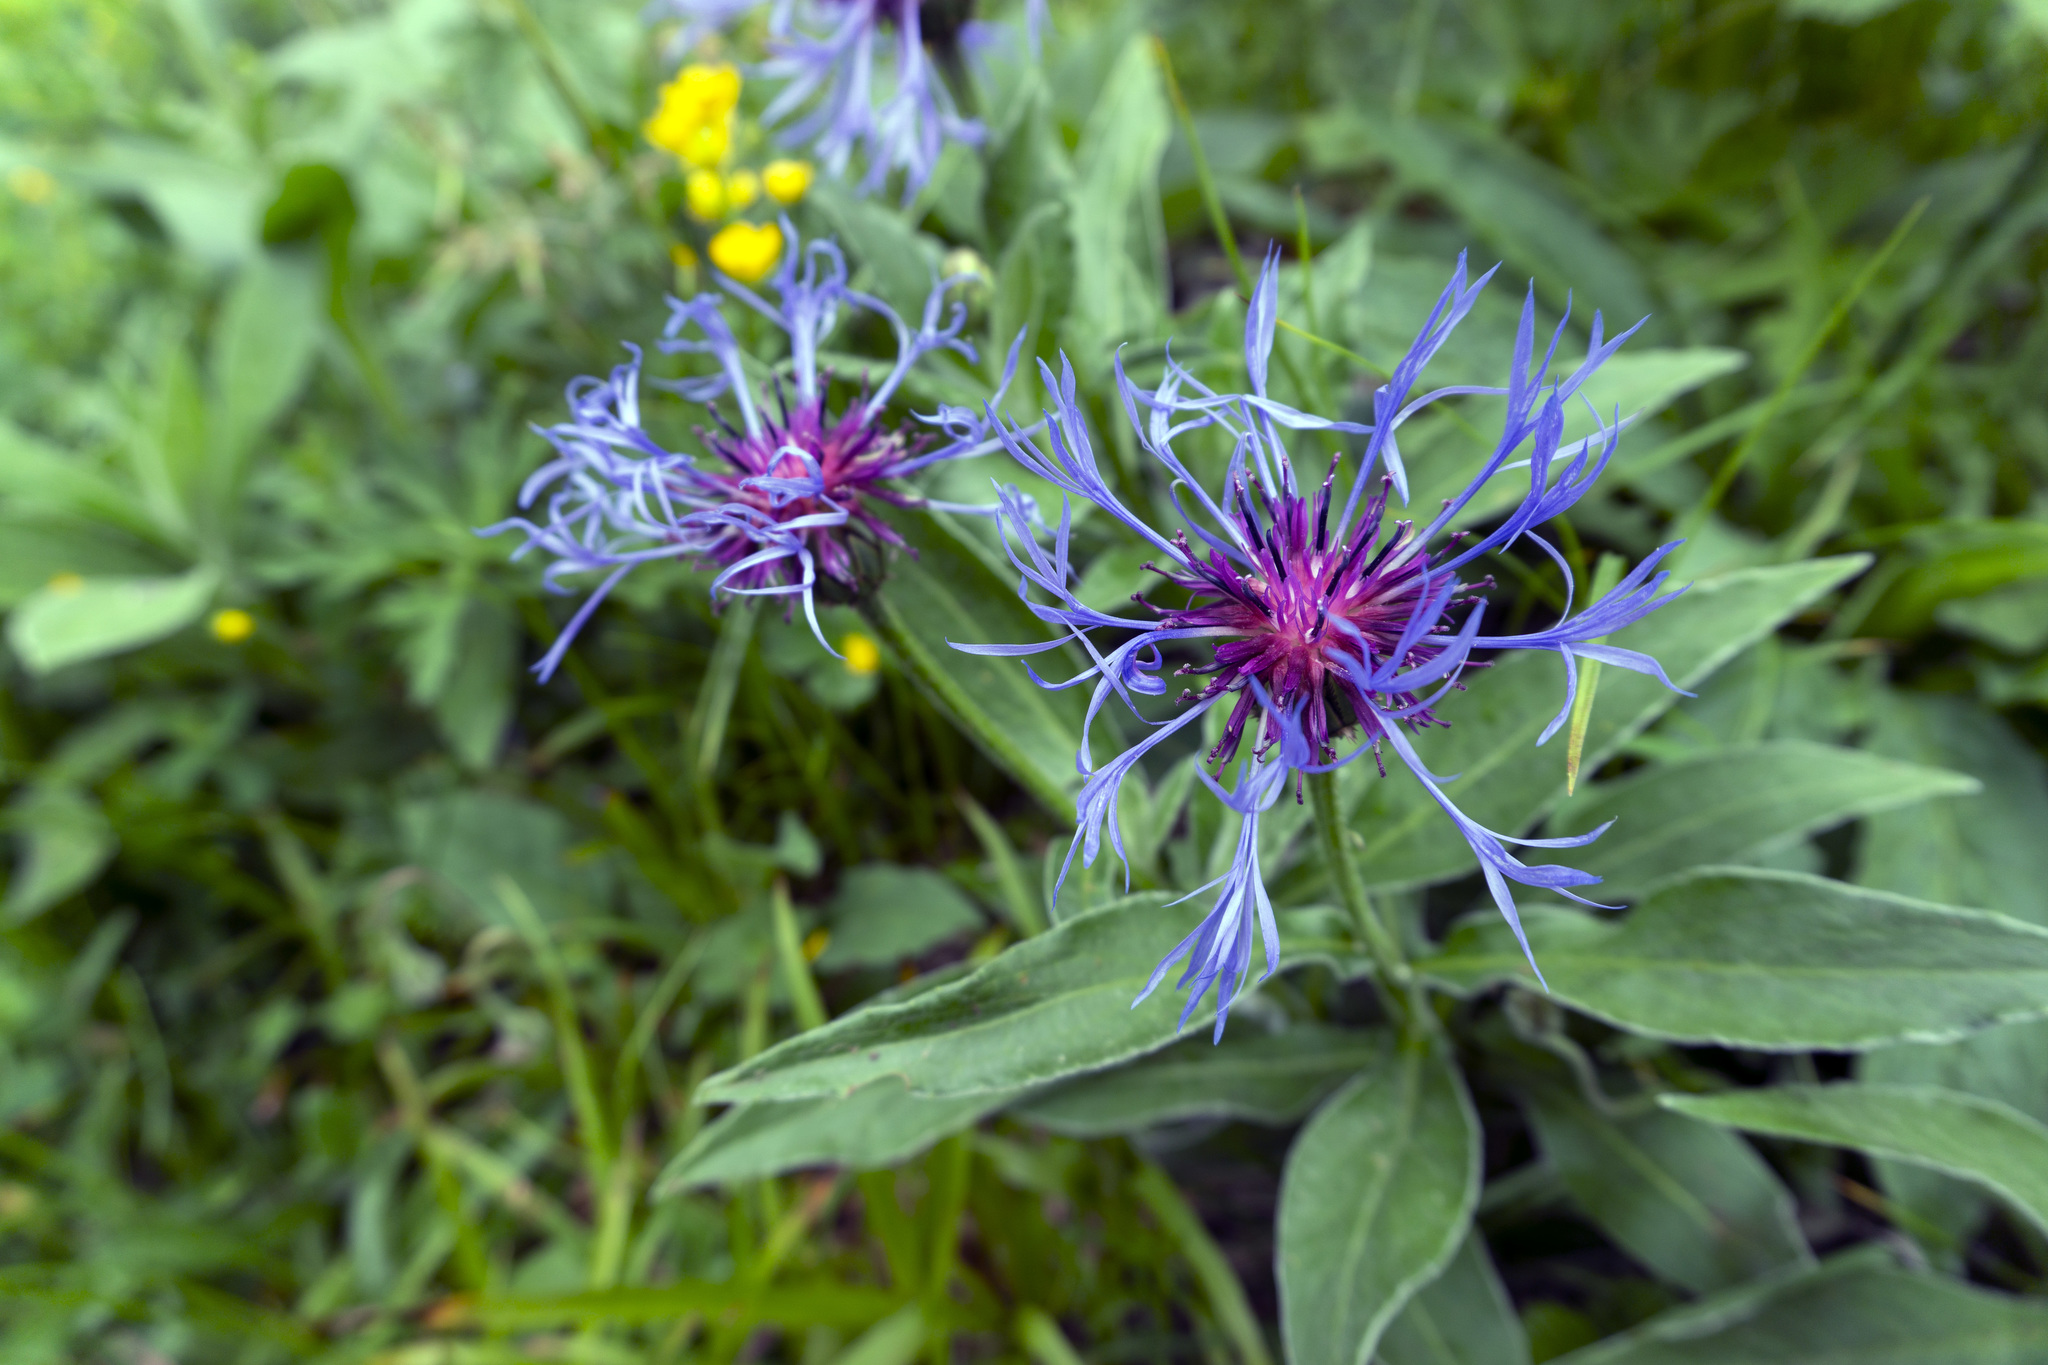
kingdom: Plantae
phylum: Tracheophyta
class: Magnoliopsida
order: Asterales
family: Asteraceae
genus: Centaurea
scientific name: Centaurea montana
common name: Perennial cornflower
